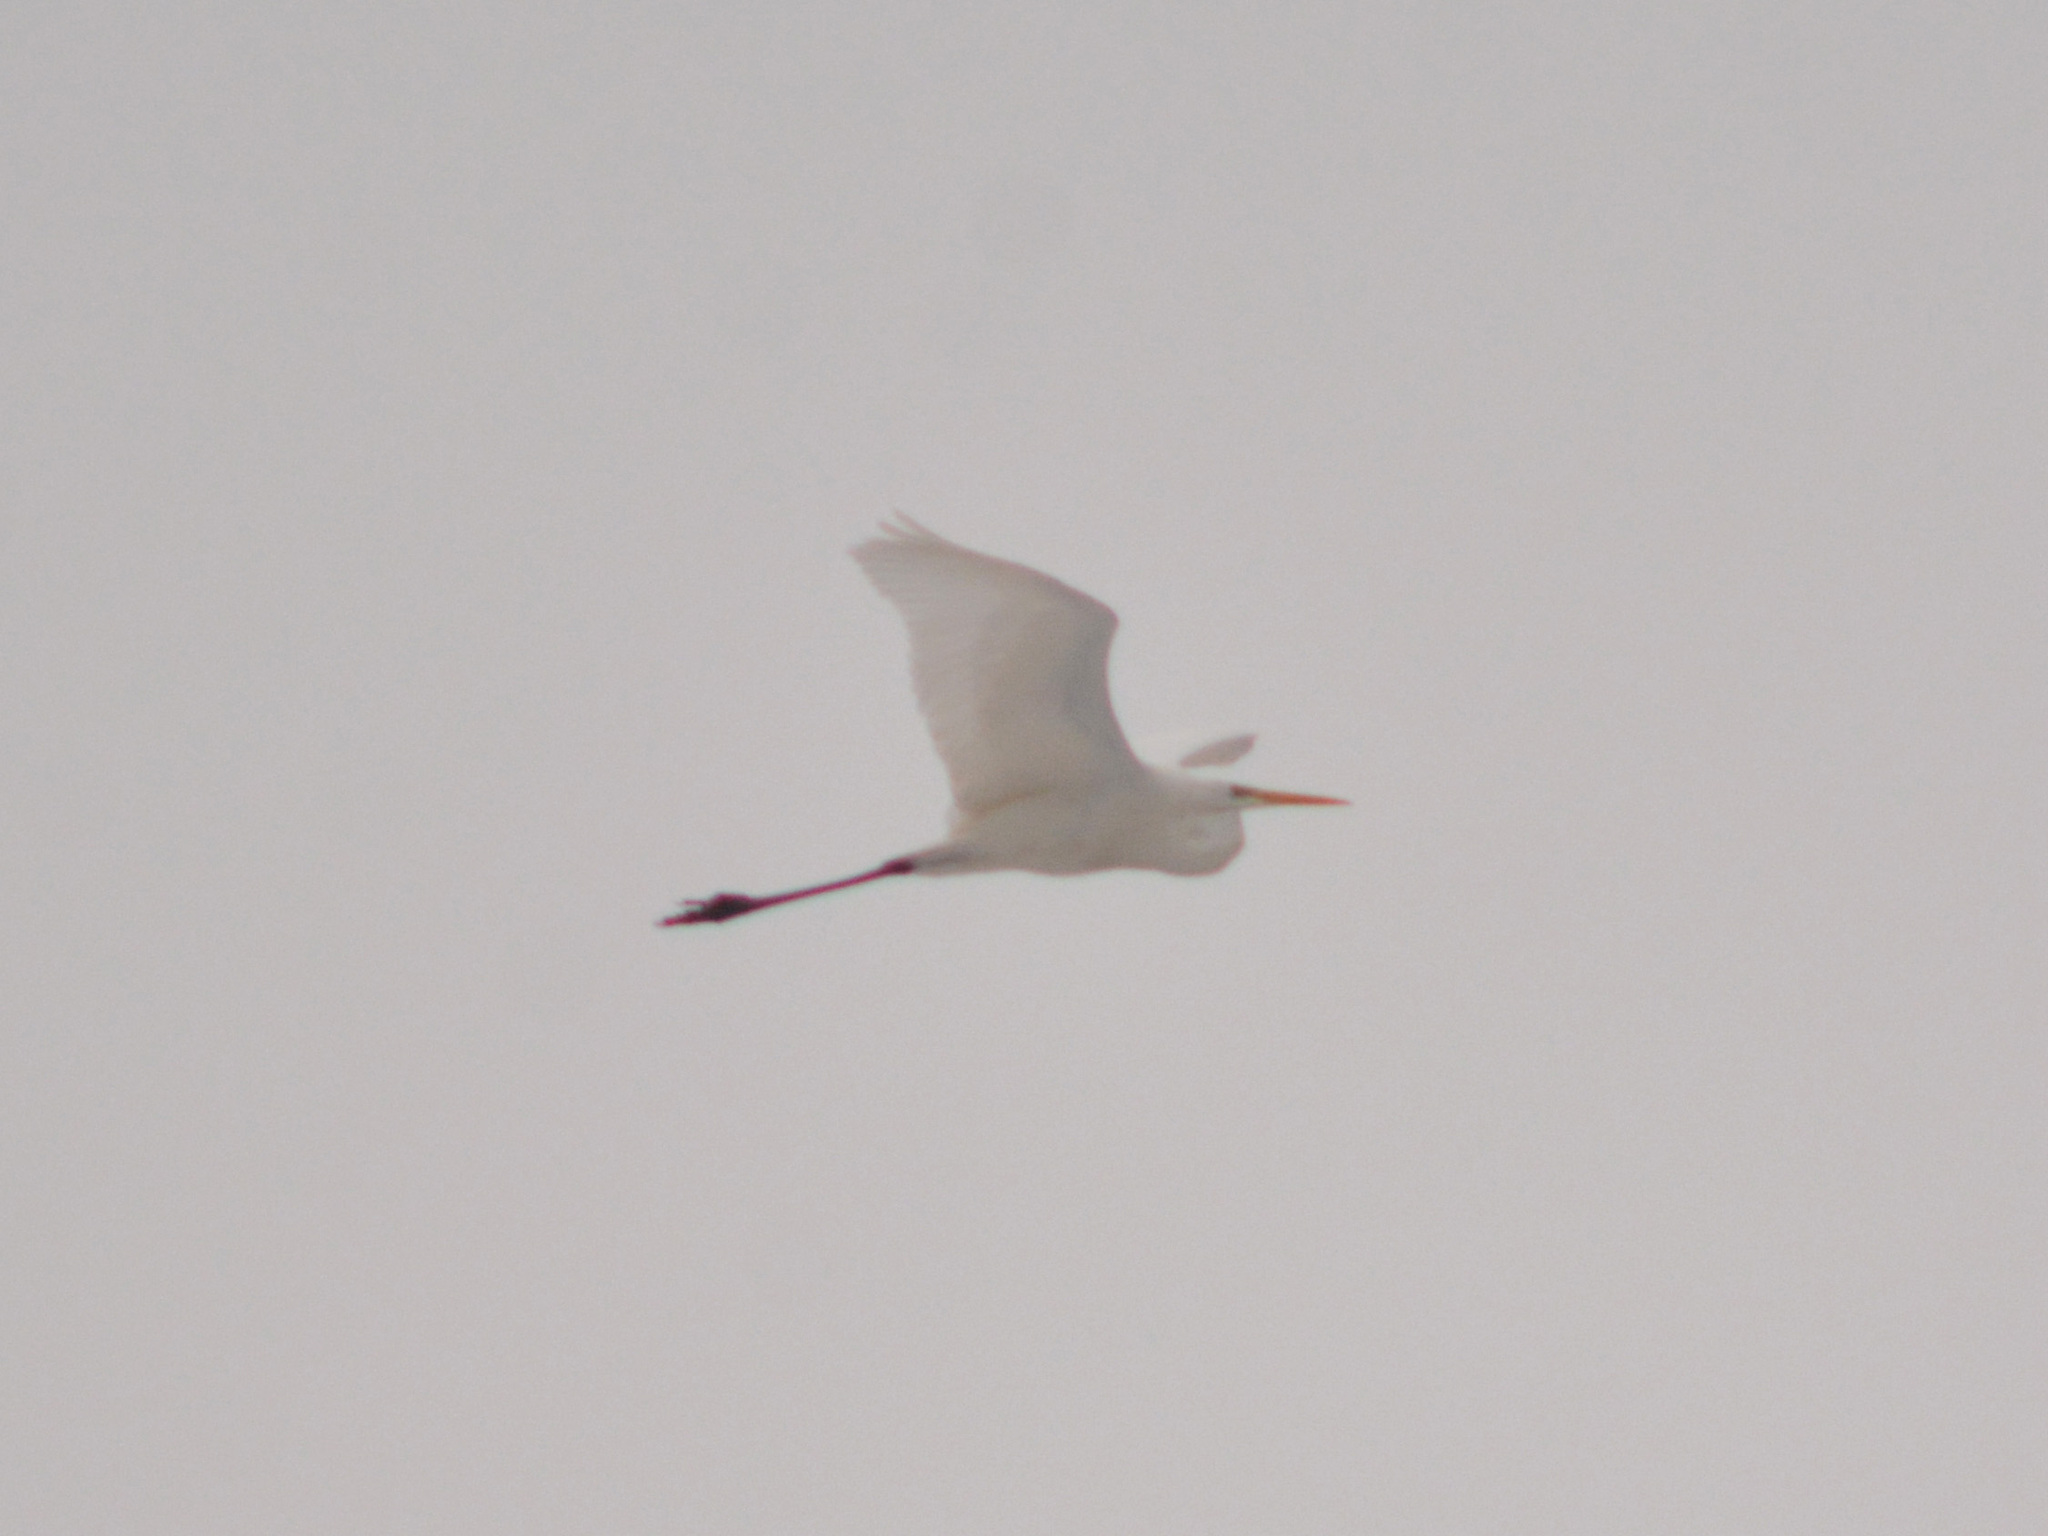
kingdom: Animalia
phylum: Chordata
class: Aves
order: Pelecaniformes
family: Ardeidae
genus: Ardea
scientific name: Ardea alba
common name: Great egret
